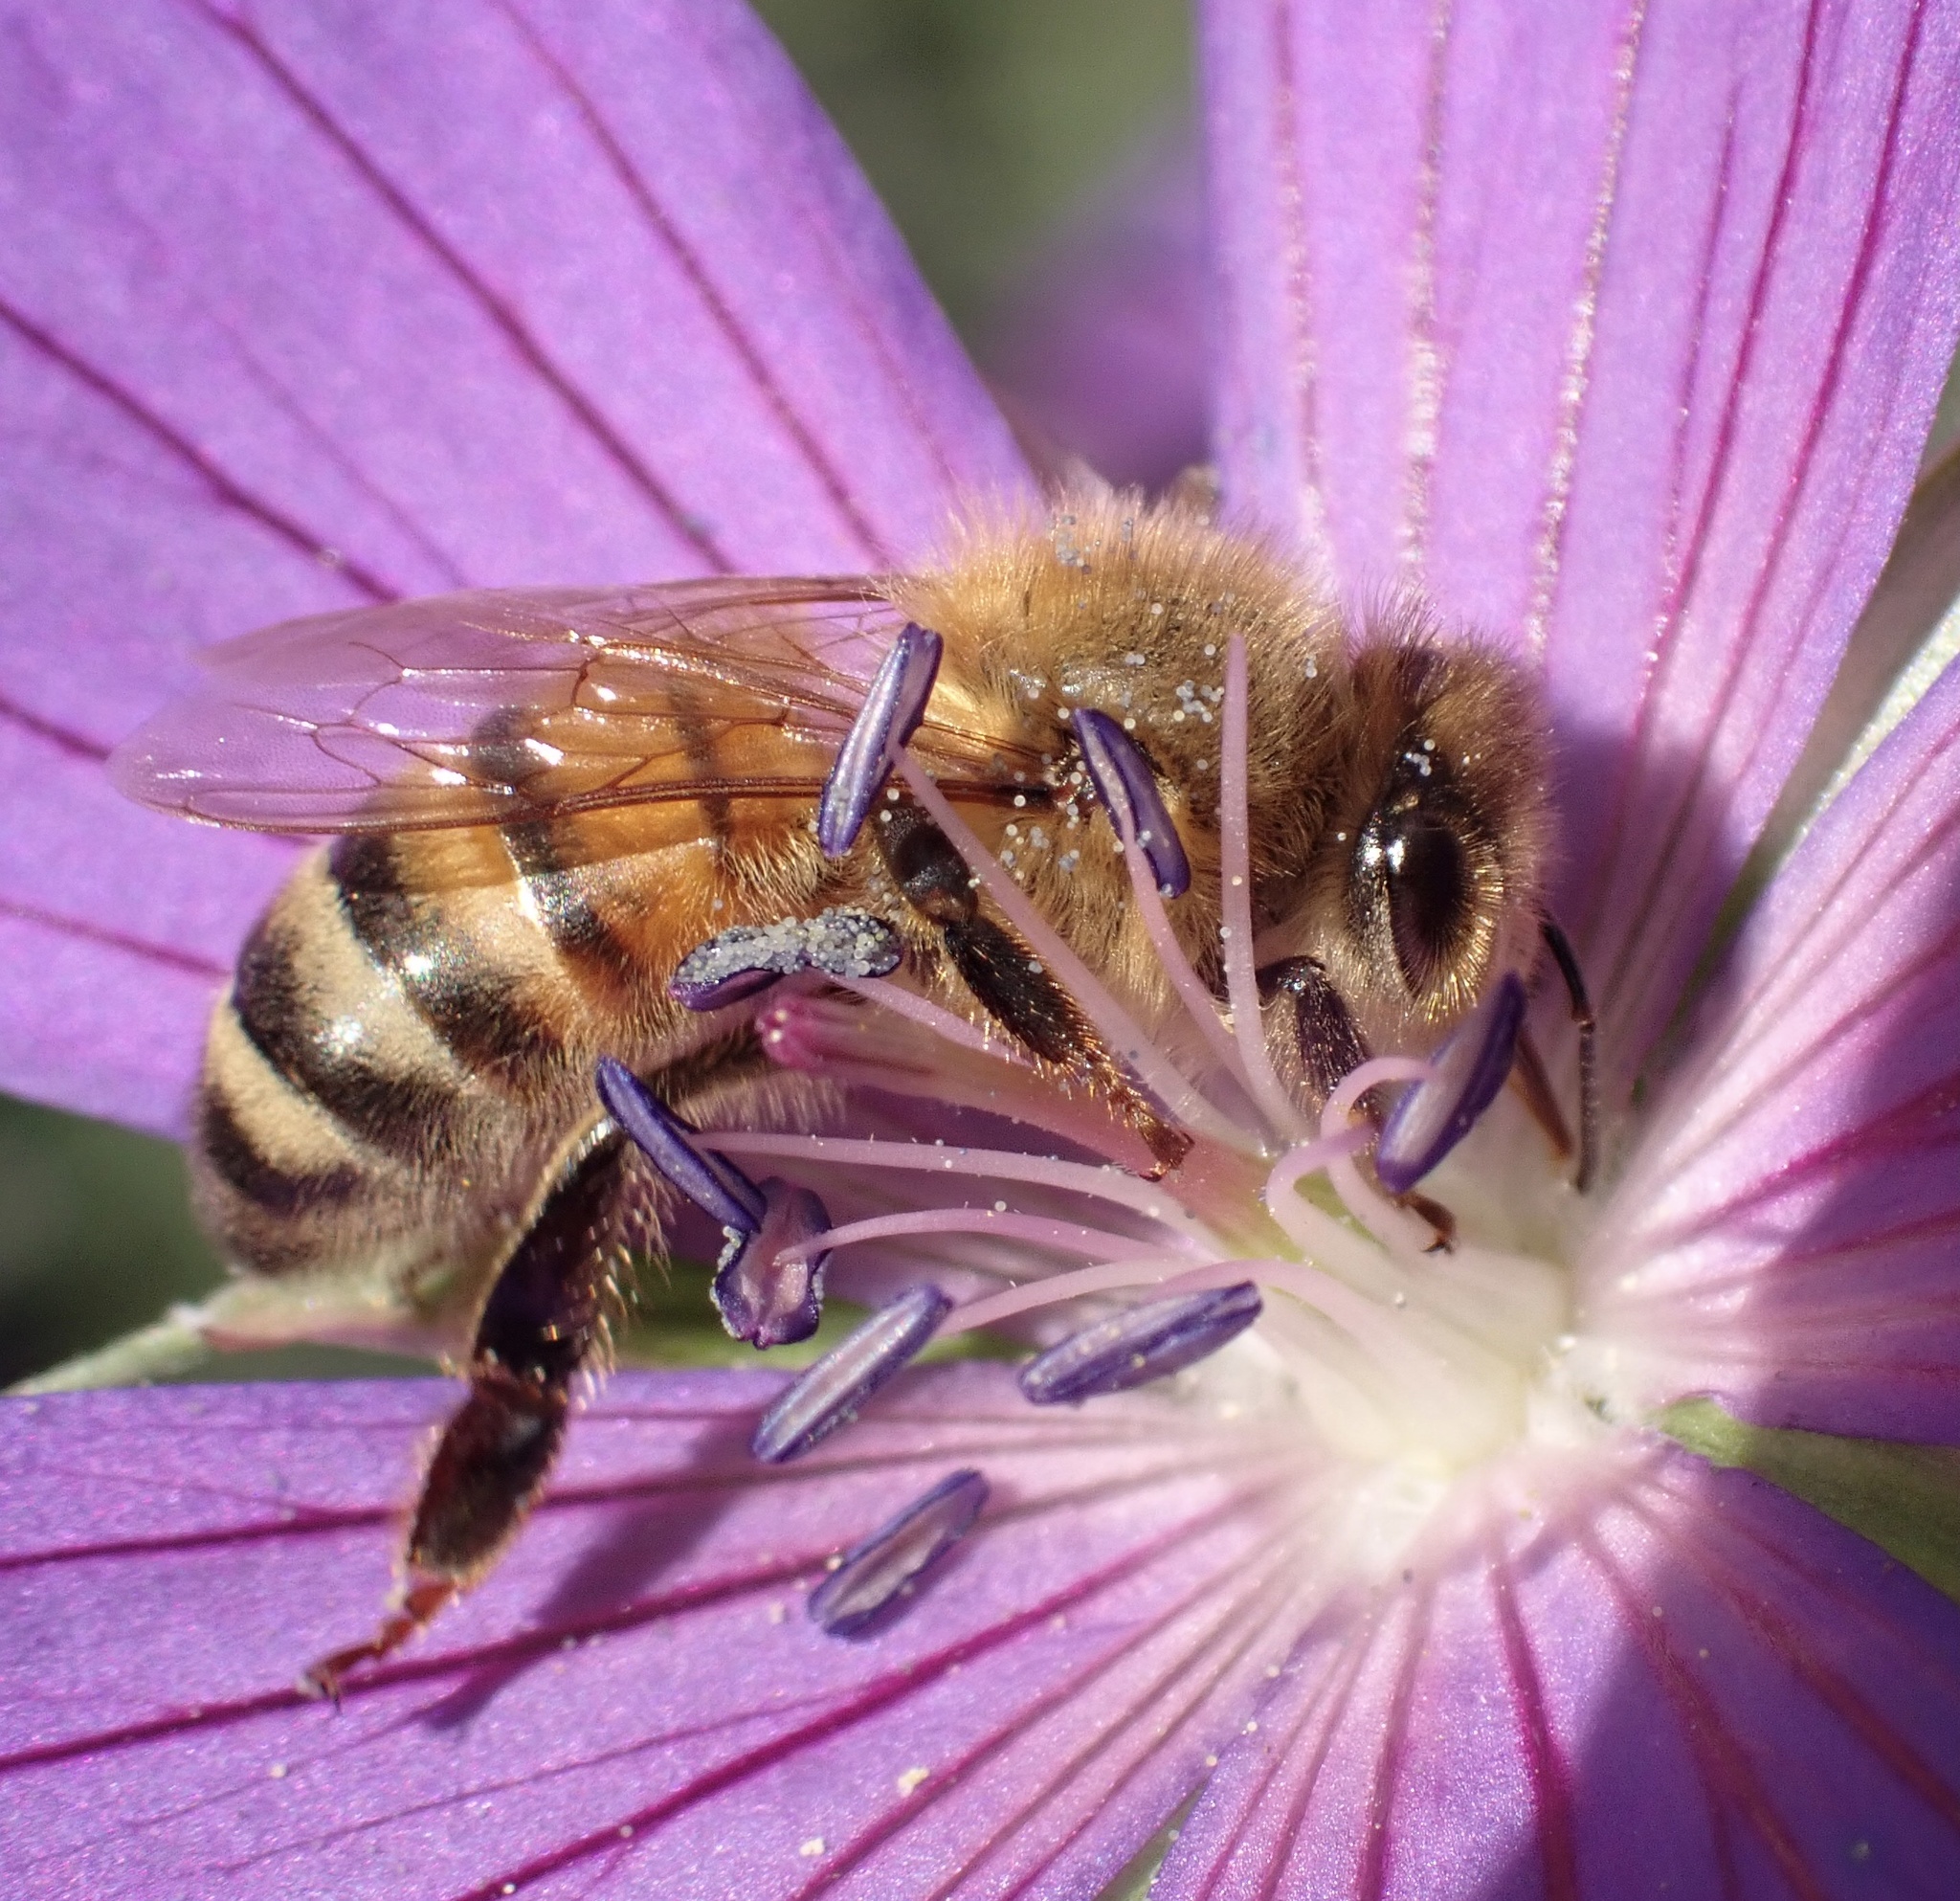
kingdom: Animalia
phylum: Arthropoda
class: Insecta
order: Hymenoptera
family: Apidae
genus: Apis
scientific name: Apis mellifera
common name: Honey bee
